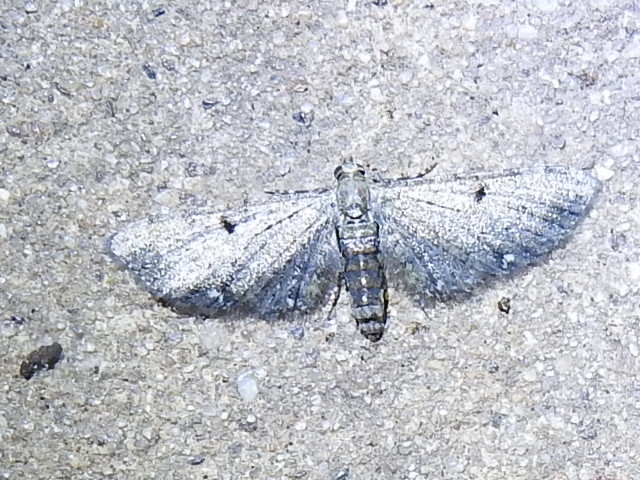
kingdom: Animalia
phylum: Arthropoda
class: Insecta
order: Lepidoptera
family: Geometridae
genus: Eupithecia
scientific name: Eupithecia miserulata
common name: Common eupithecia
